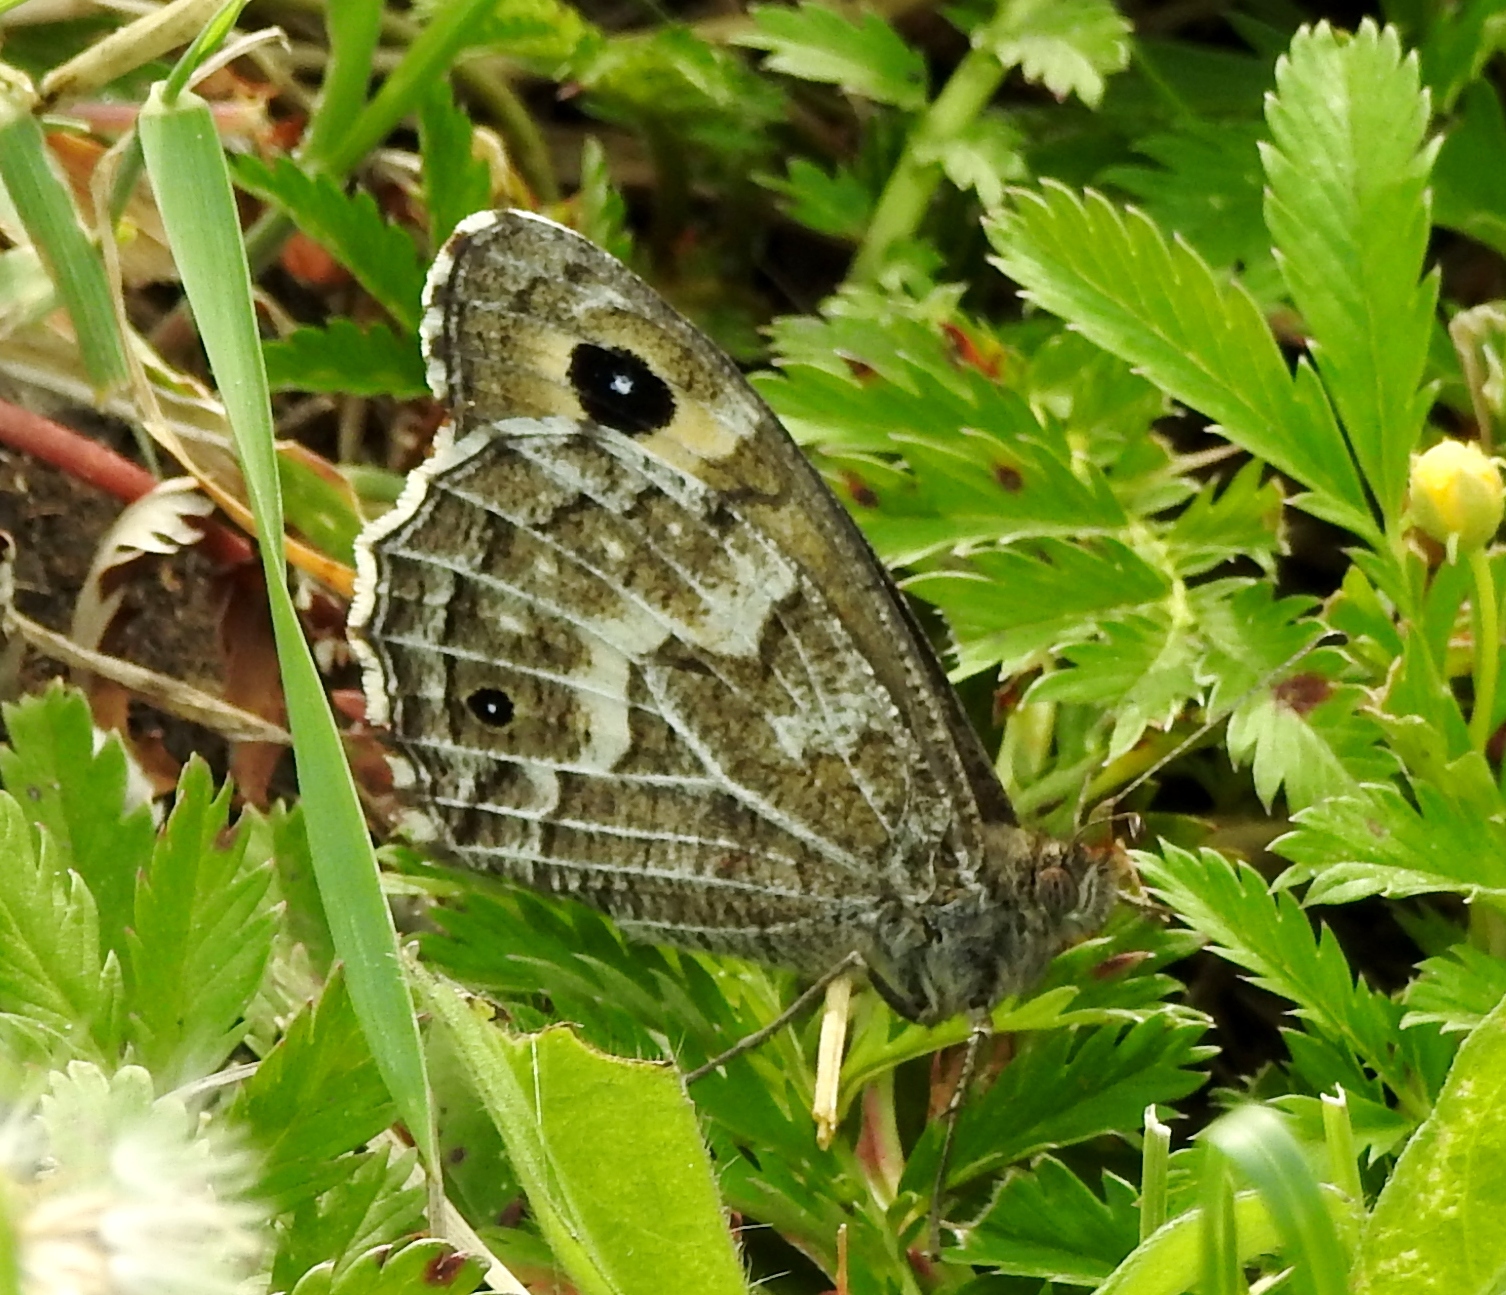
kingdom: Animalia
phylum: Arthropoda
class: Insecta
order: Lepidoptera
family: Nymphalidae
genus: Hipparchia
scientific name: Hipparchia autonoe
